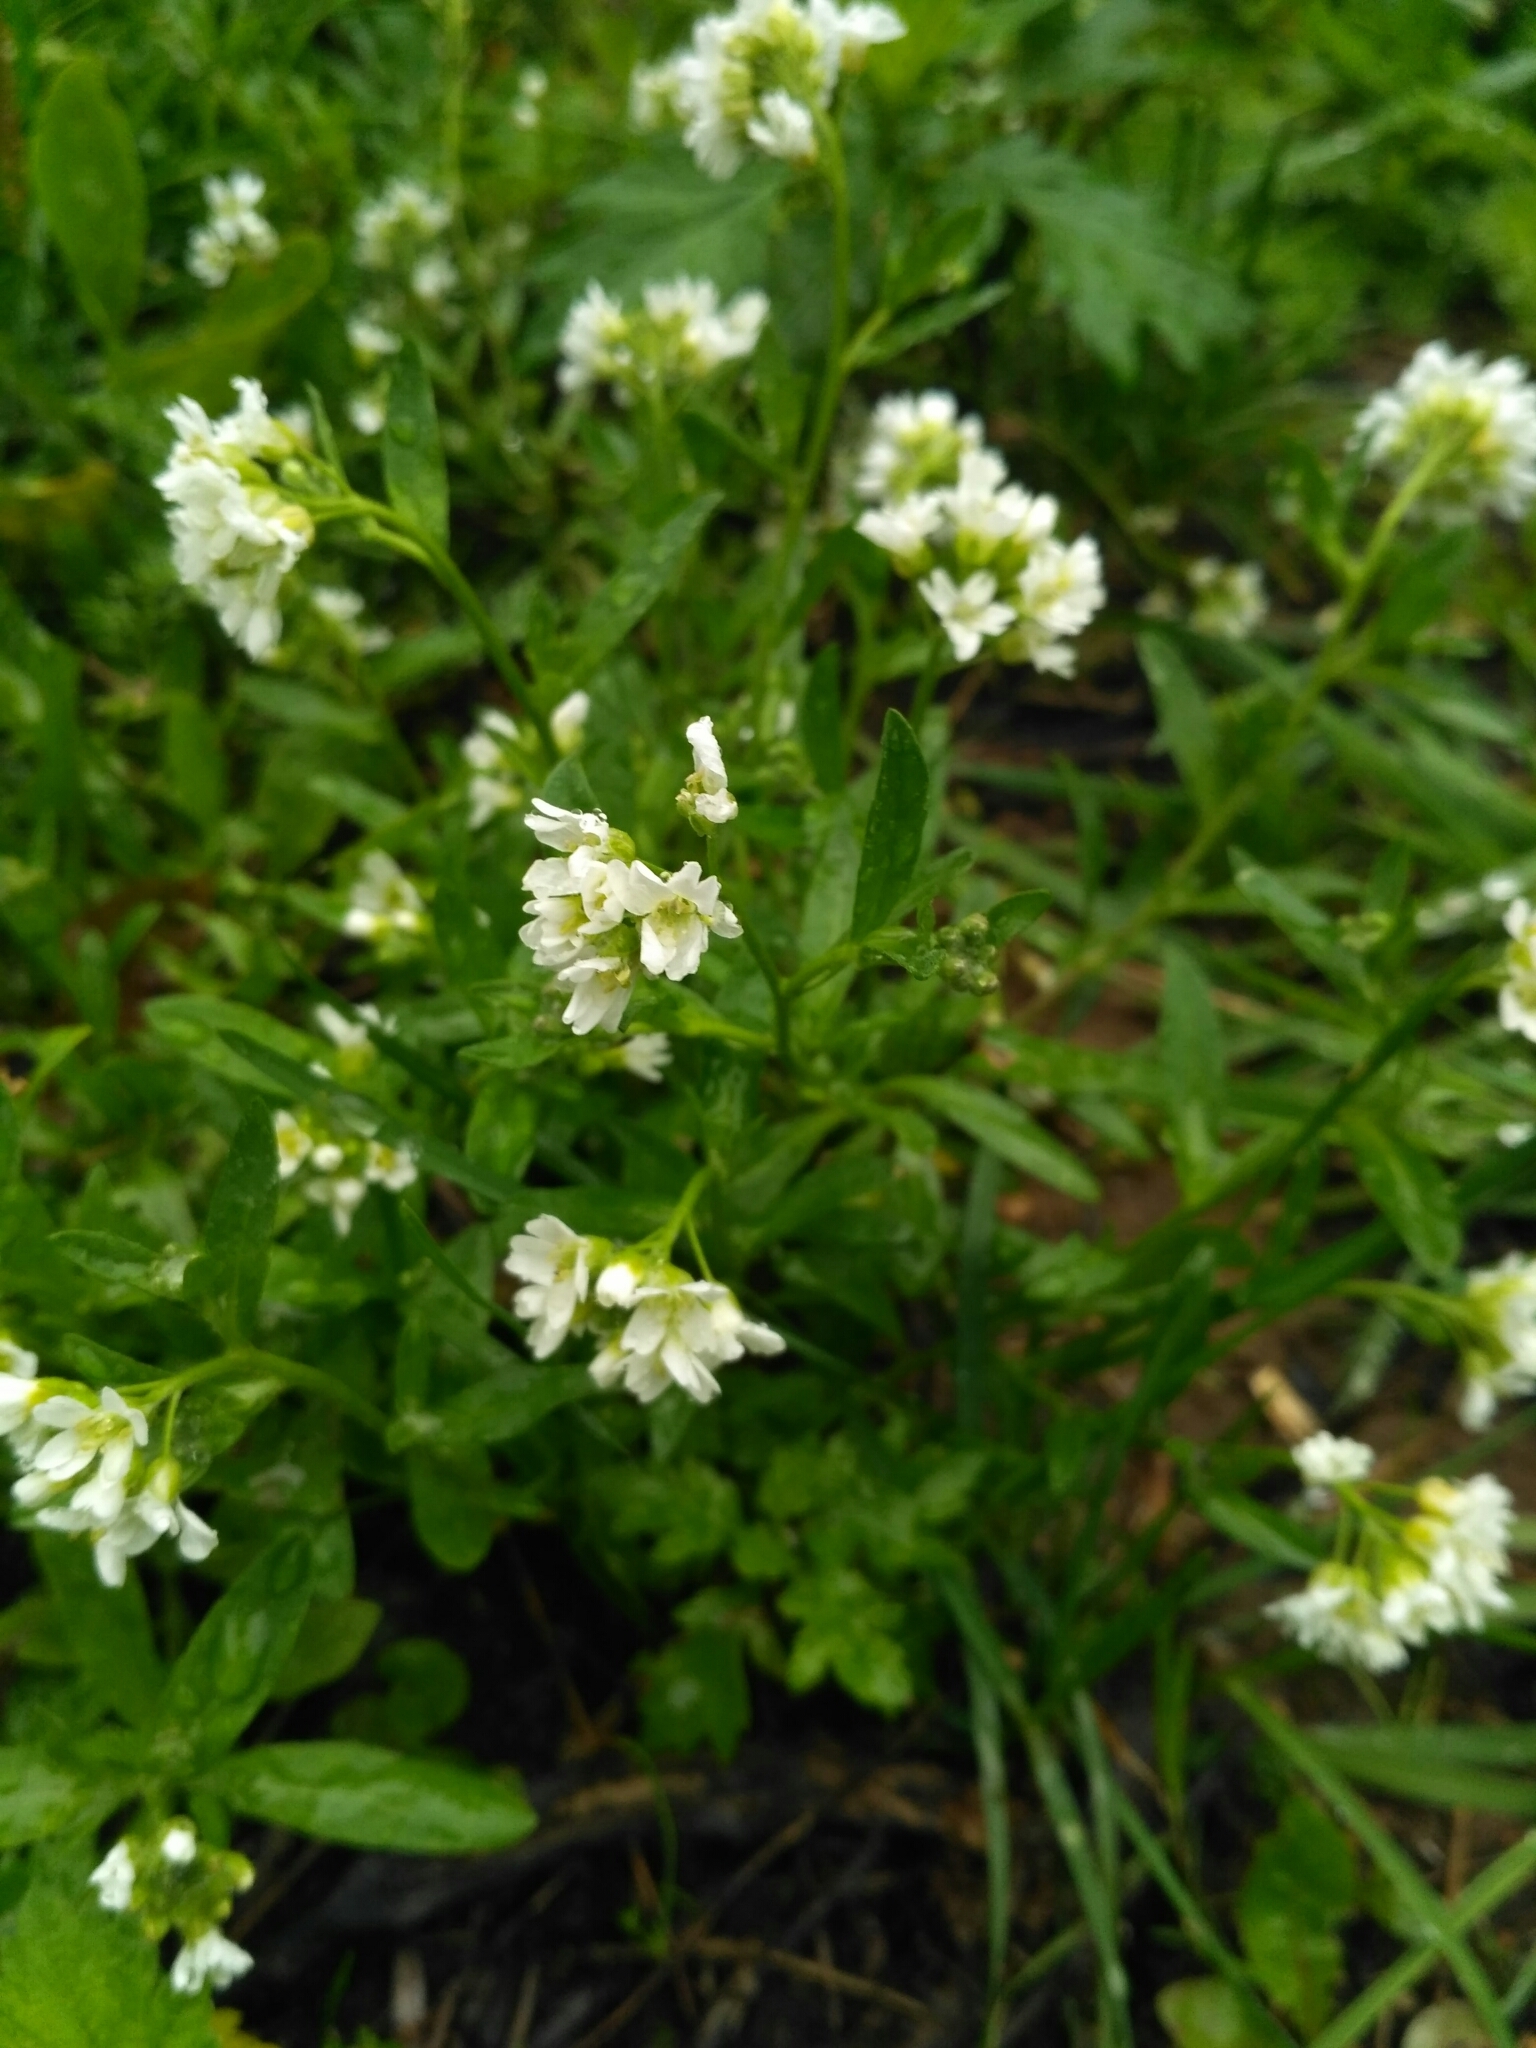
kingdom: Plantae
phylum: Tracheophyta
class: Magnoliopsida
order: Brassicales
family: Brassicaceae
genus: Berteroa
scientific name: Berteroa incana
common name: Hoary alison
